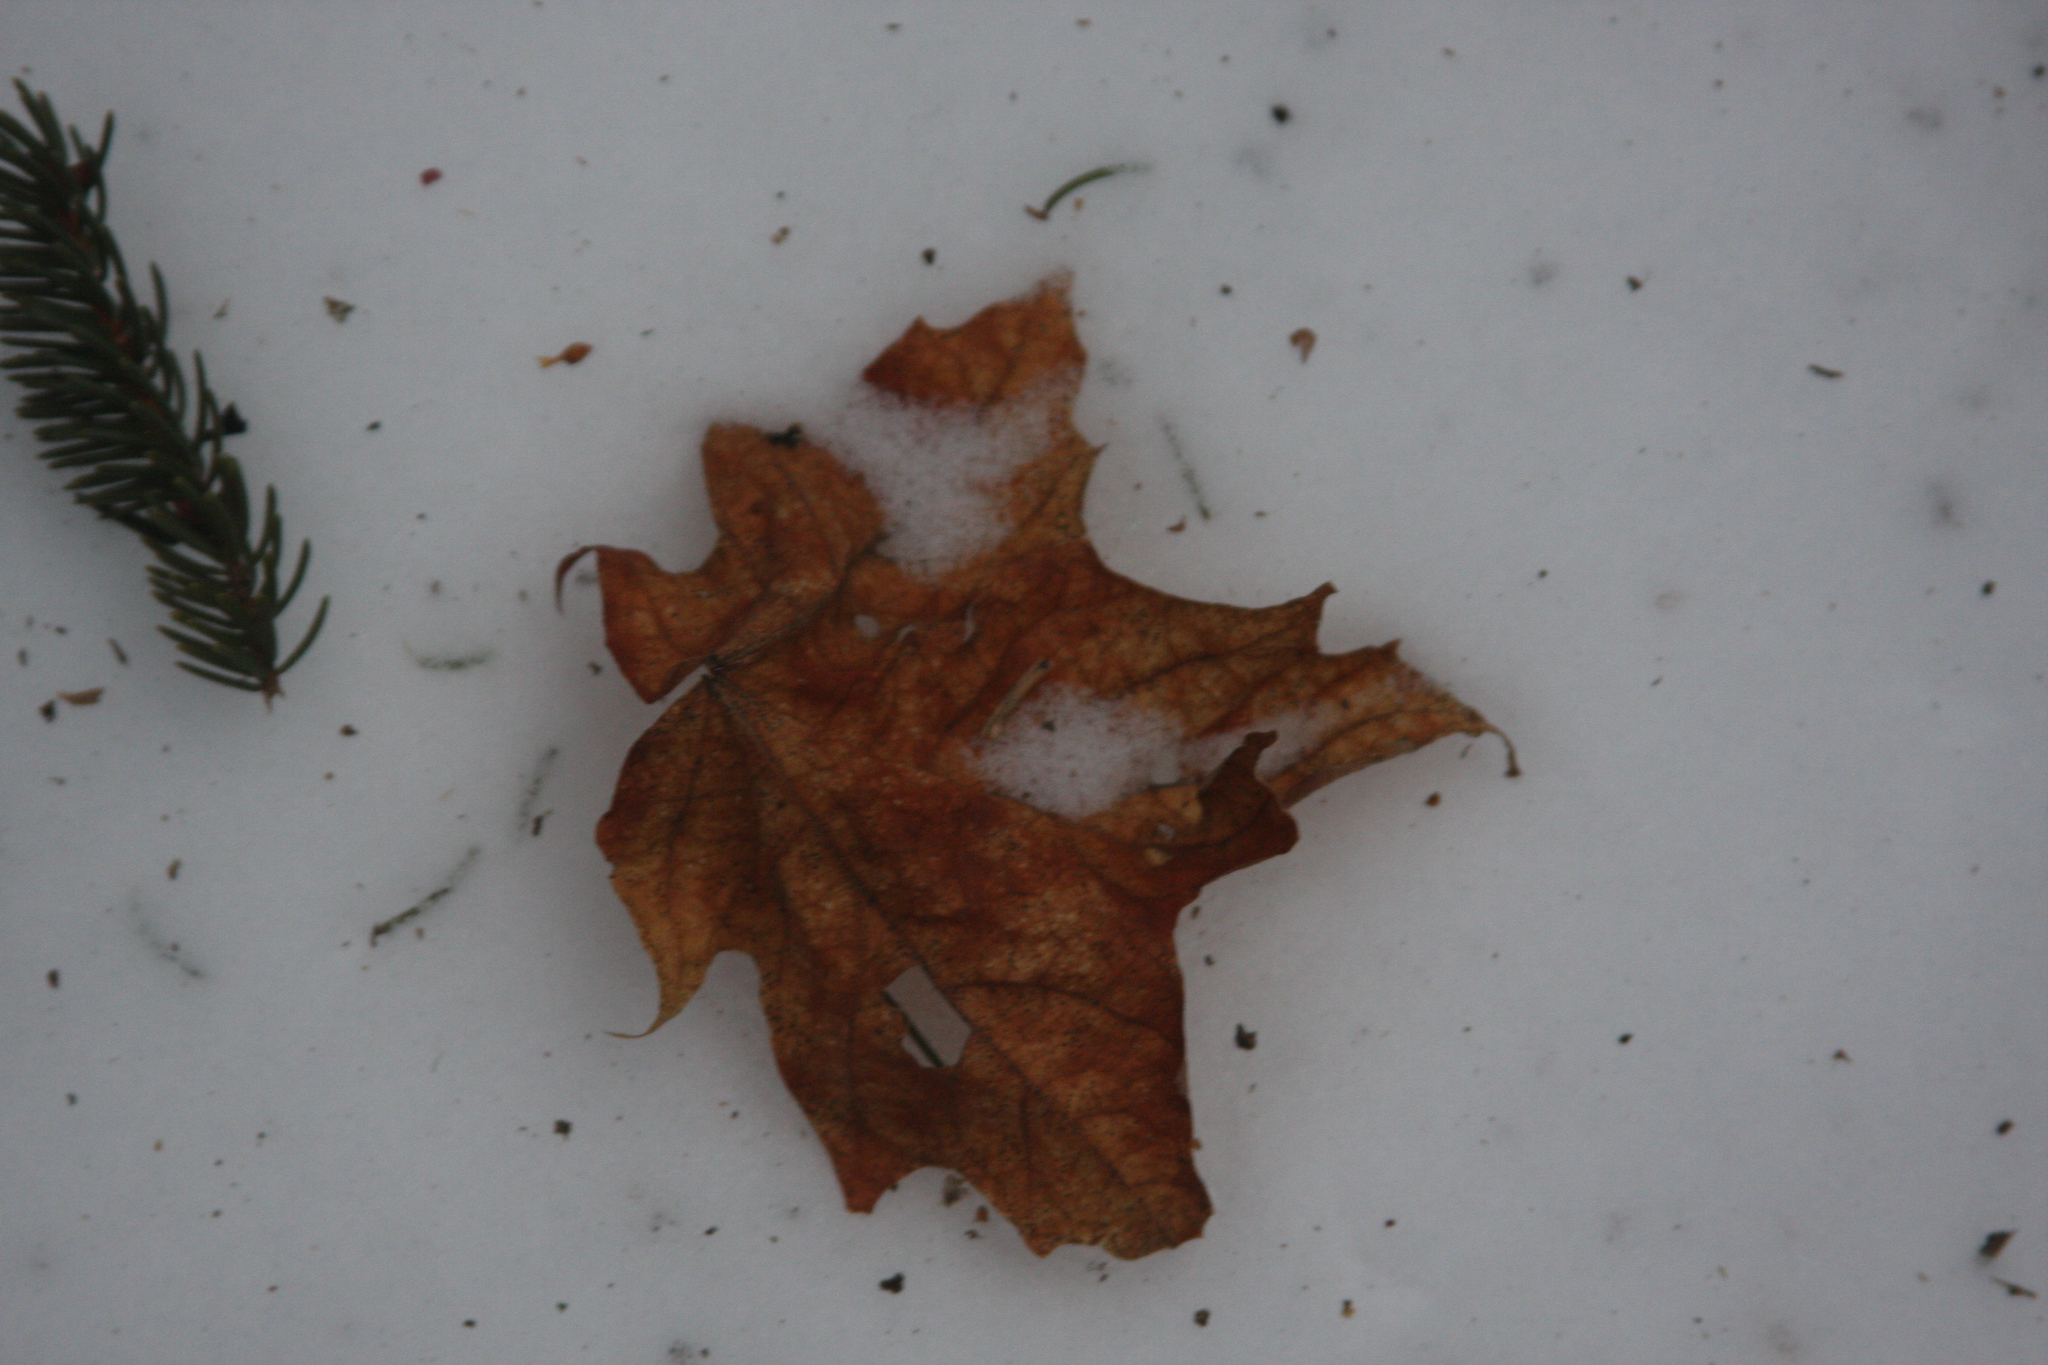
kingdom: Plantae
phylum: Tracheophyta
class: Magnoliopsida
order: Sapindales
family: Sapindaceae
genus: Acer
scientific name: Acer saccharum
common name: Sugar maple
